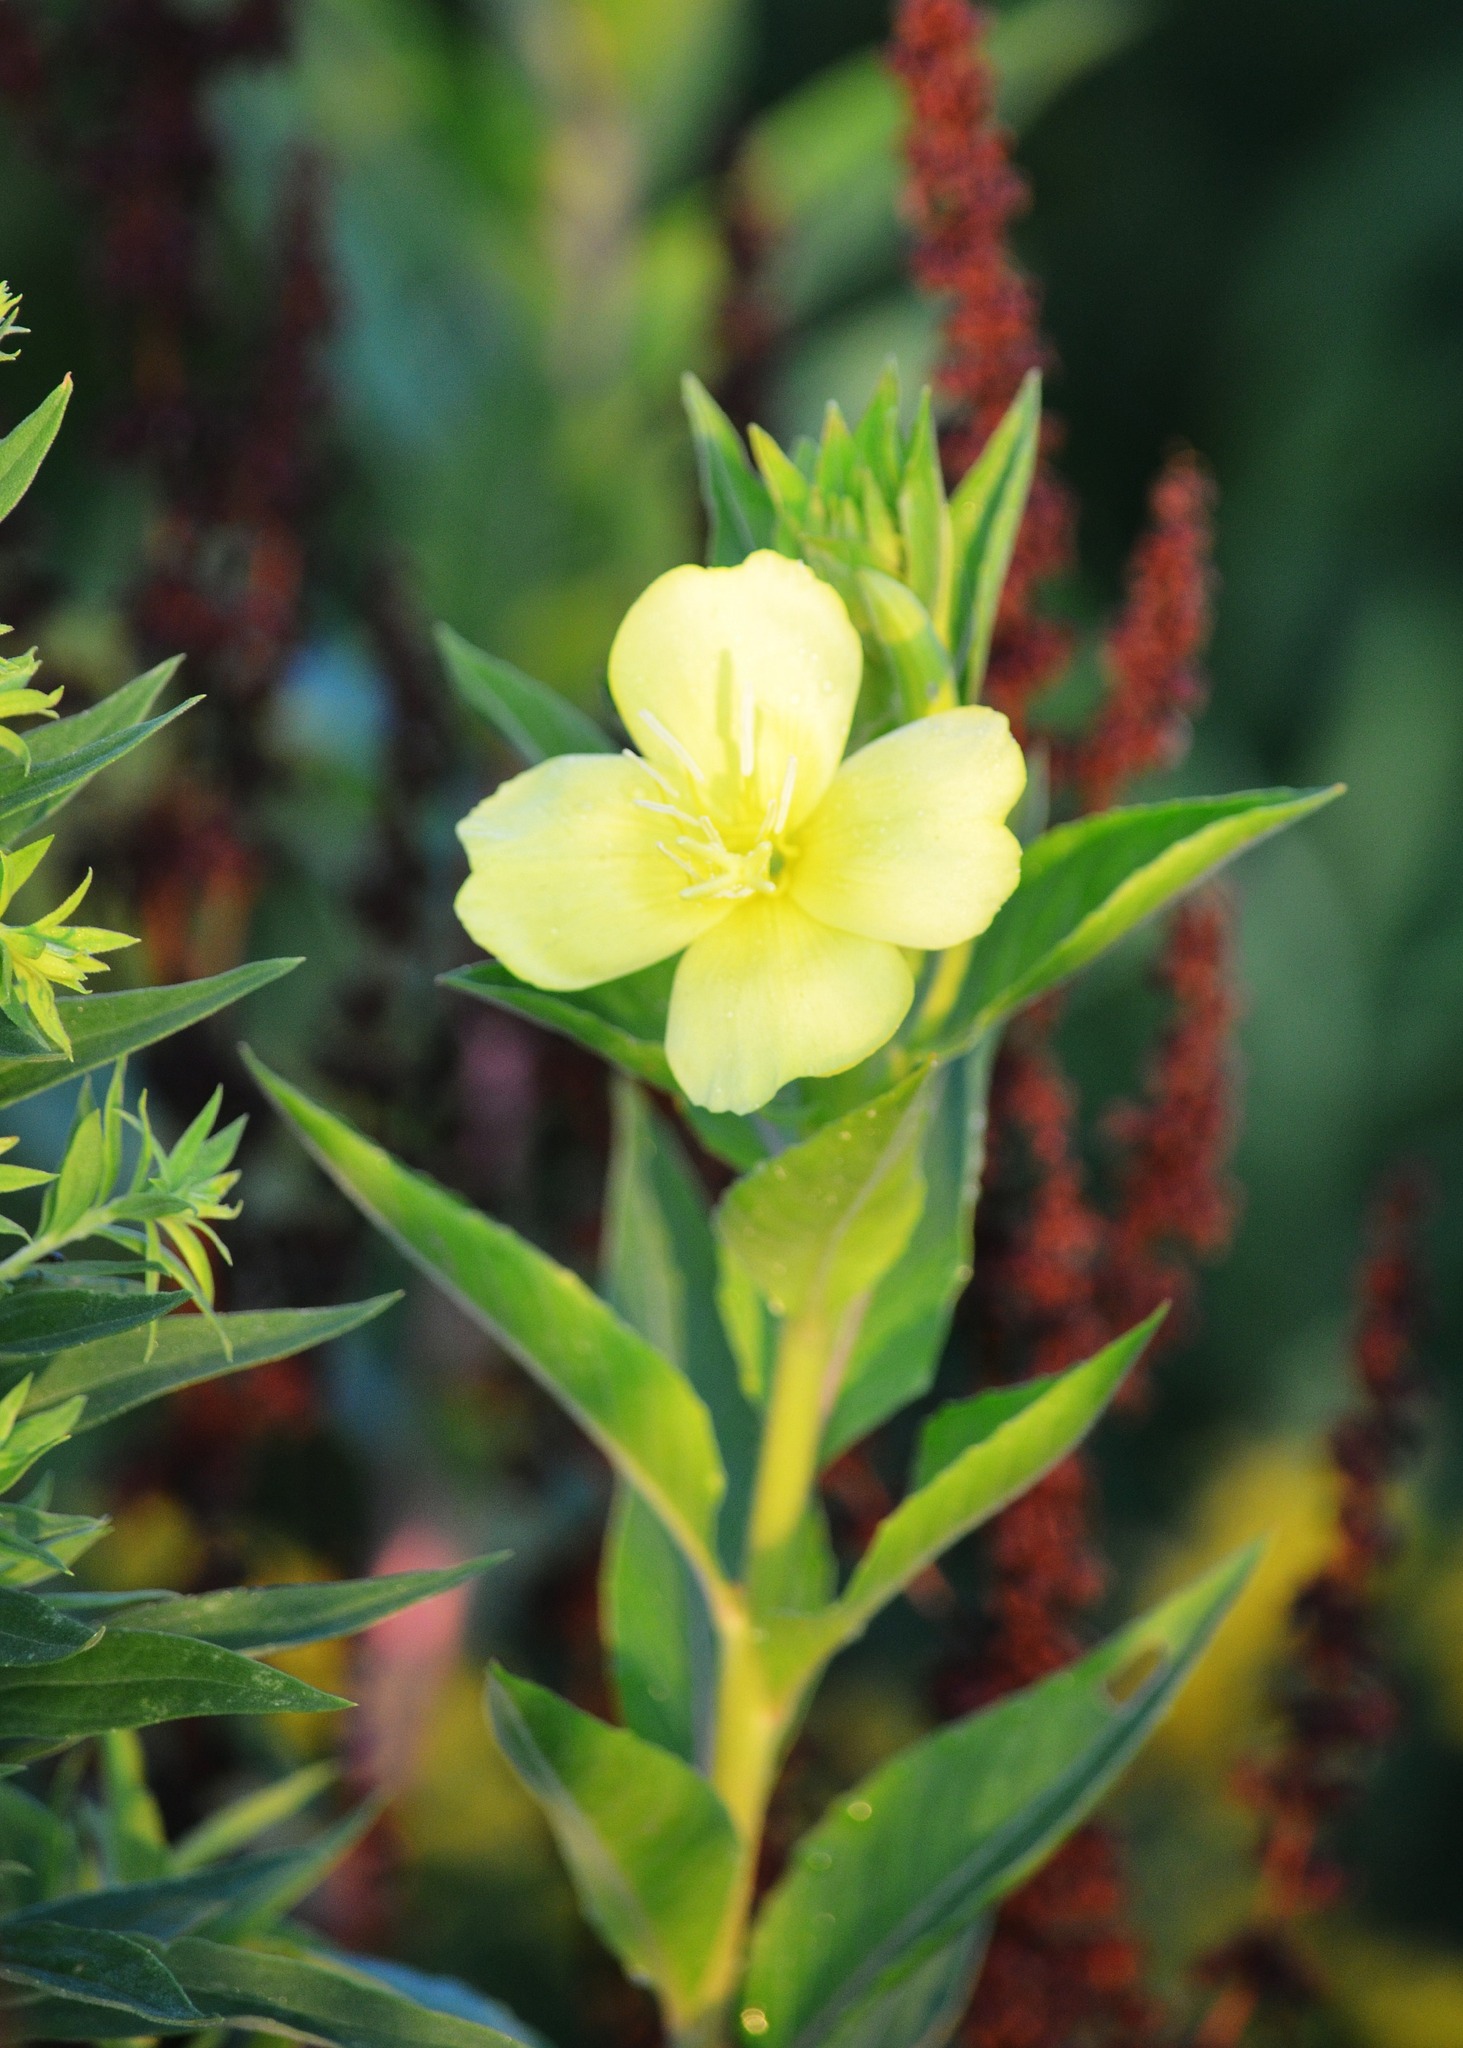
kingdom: Plantae
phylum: Tracheophyta
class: Magnoliopsida
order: Myrtales
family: Onagraceae
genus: Oenothera
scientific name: Oenothera biennis
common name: Common evening-primrose
